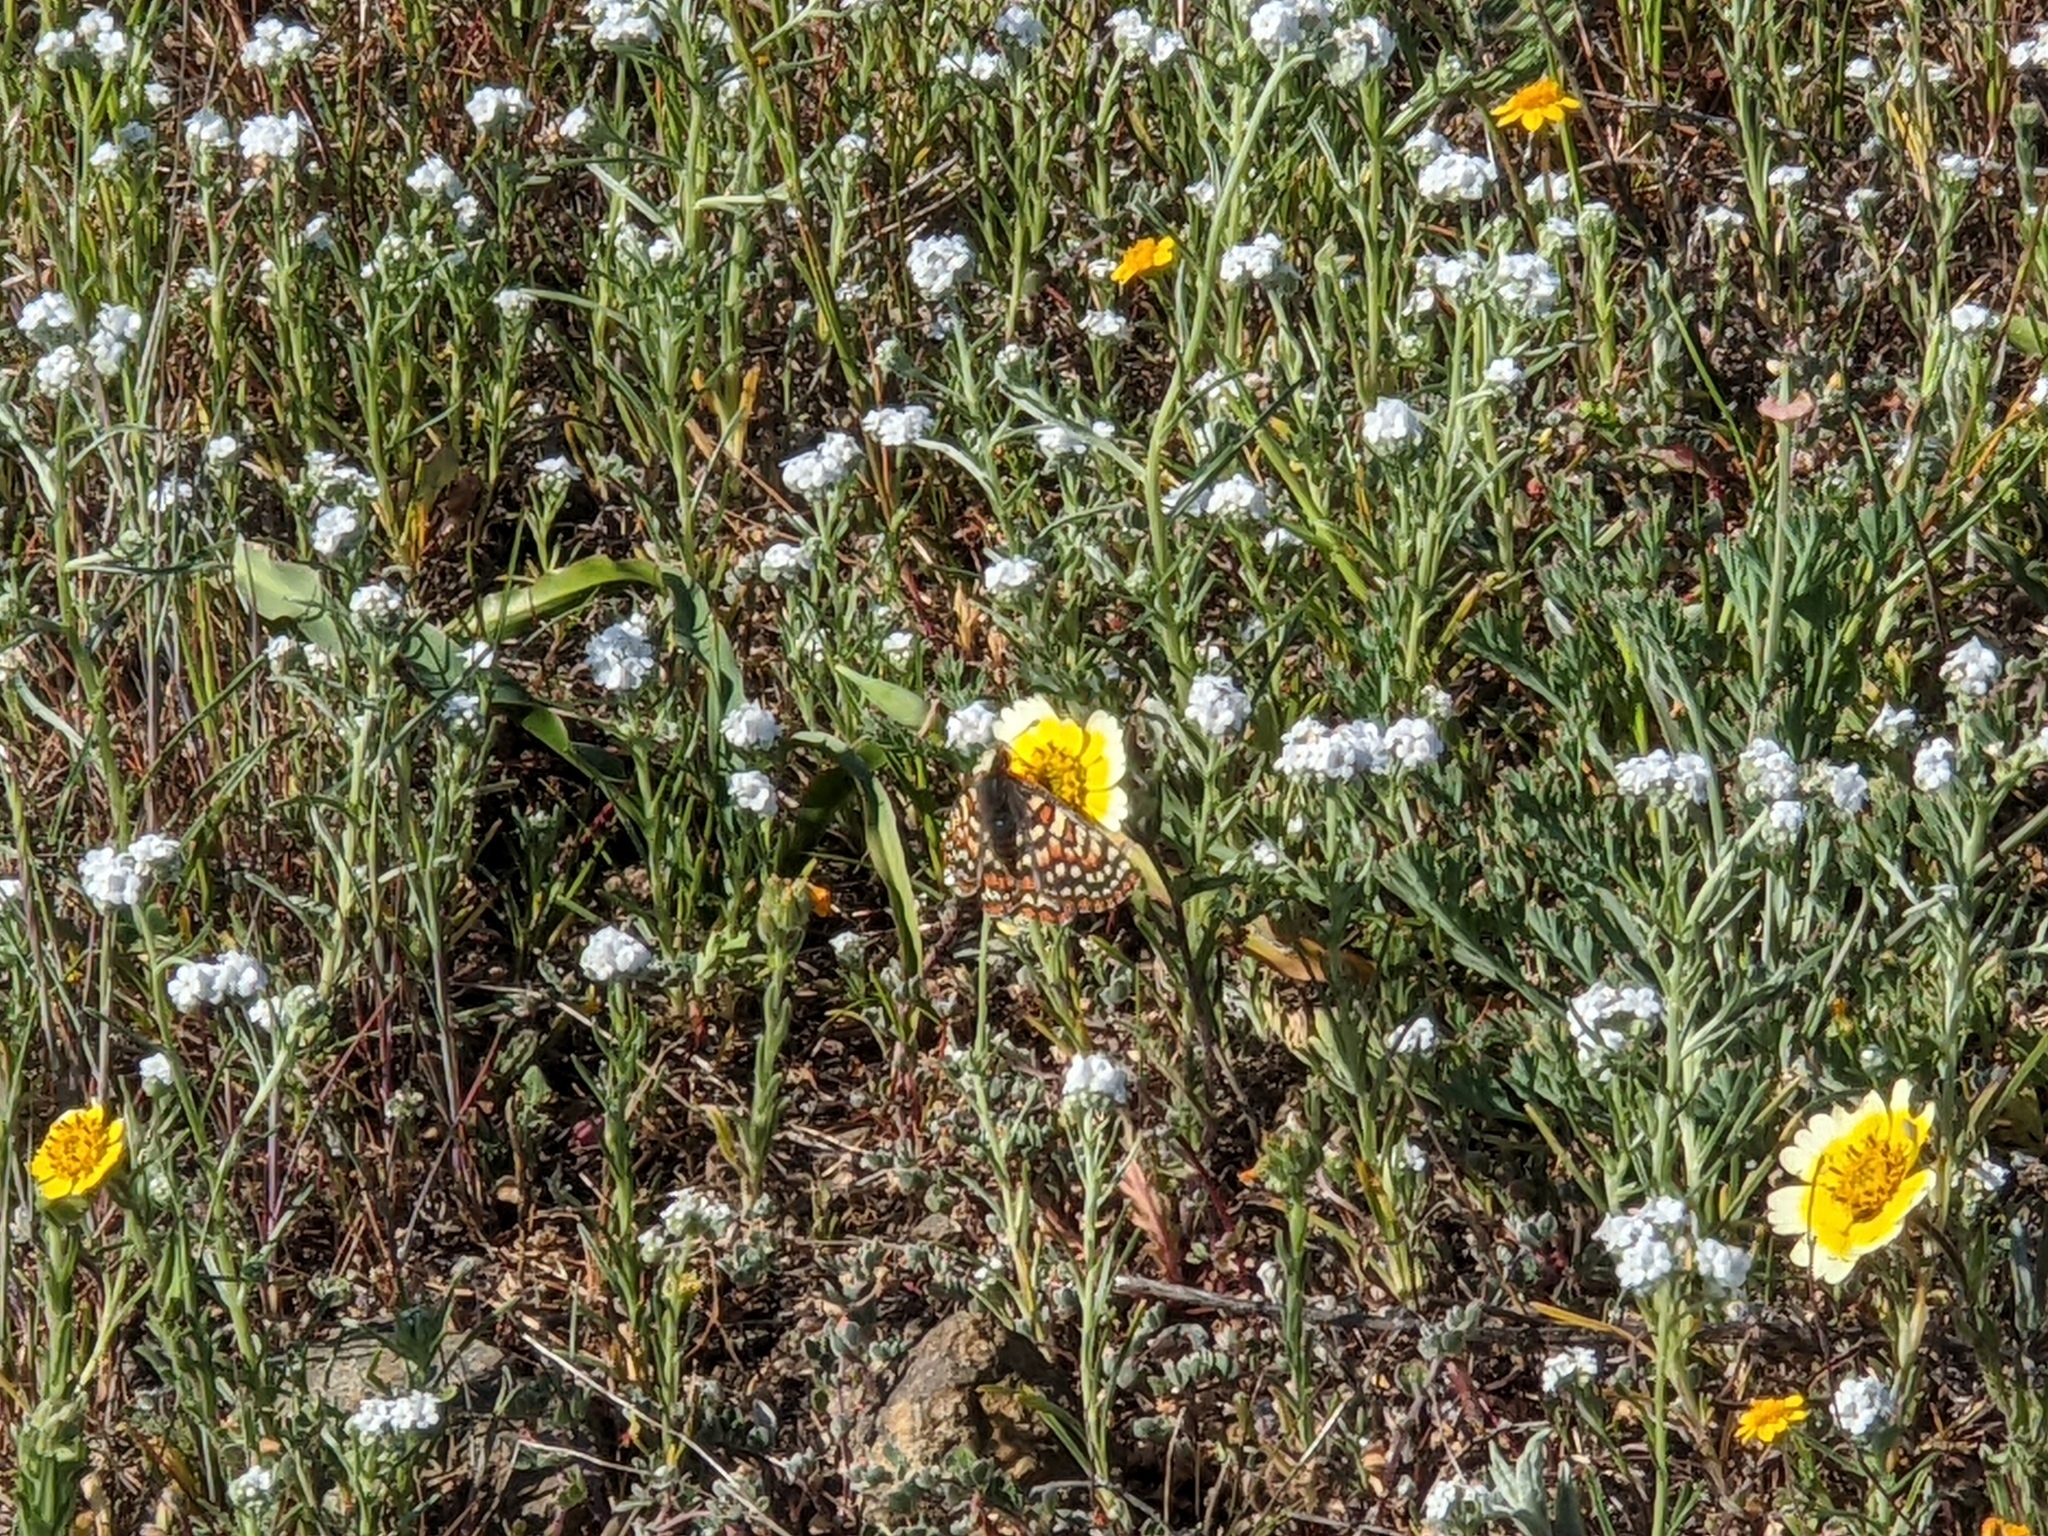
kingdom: Animalia
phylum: Arthropoda
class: Insecta
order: Lepidoptera
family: Nymphalidae
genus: Occidryas
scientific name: Occidryas editha
